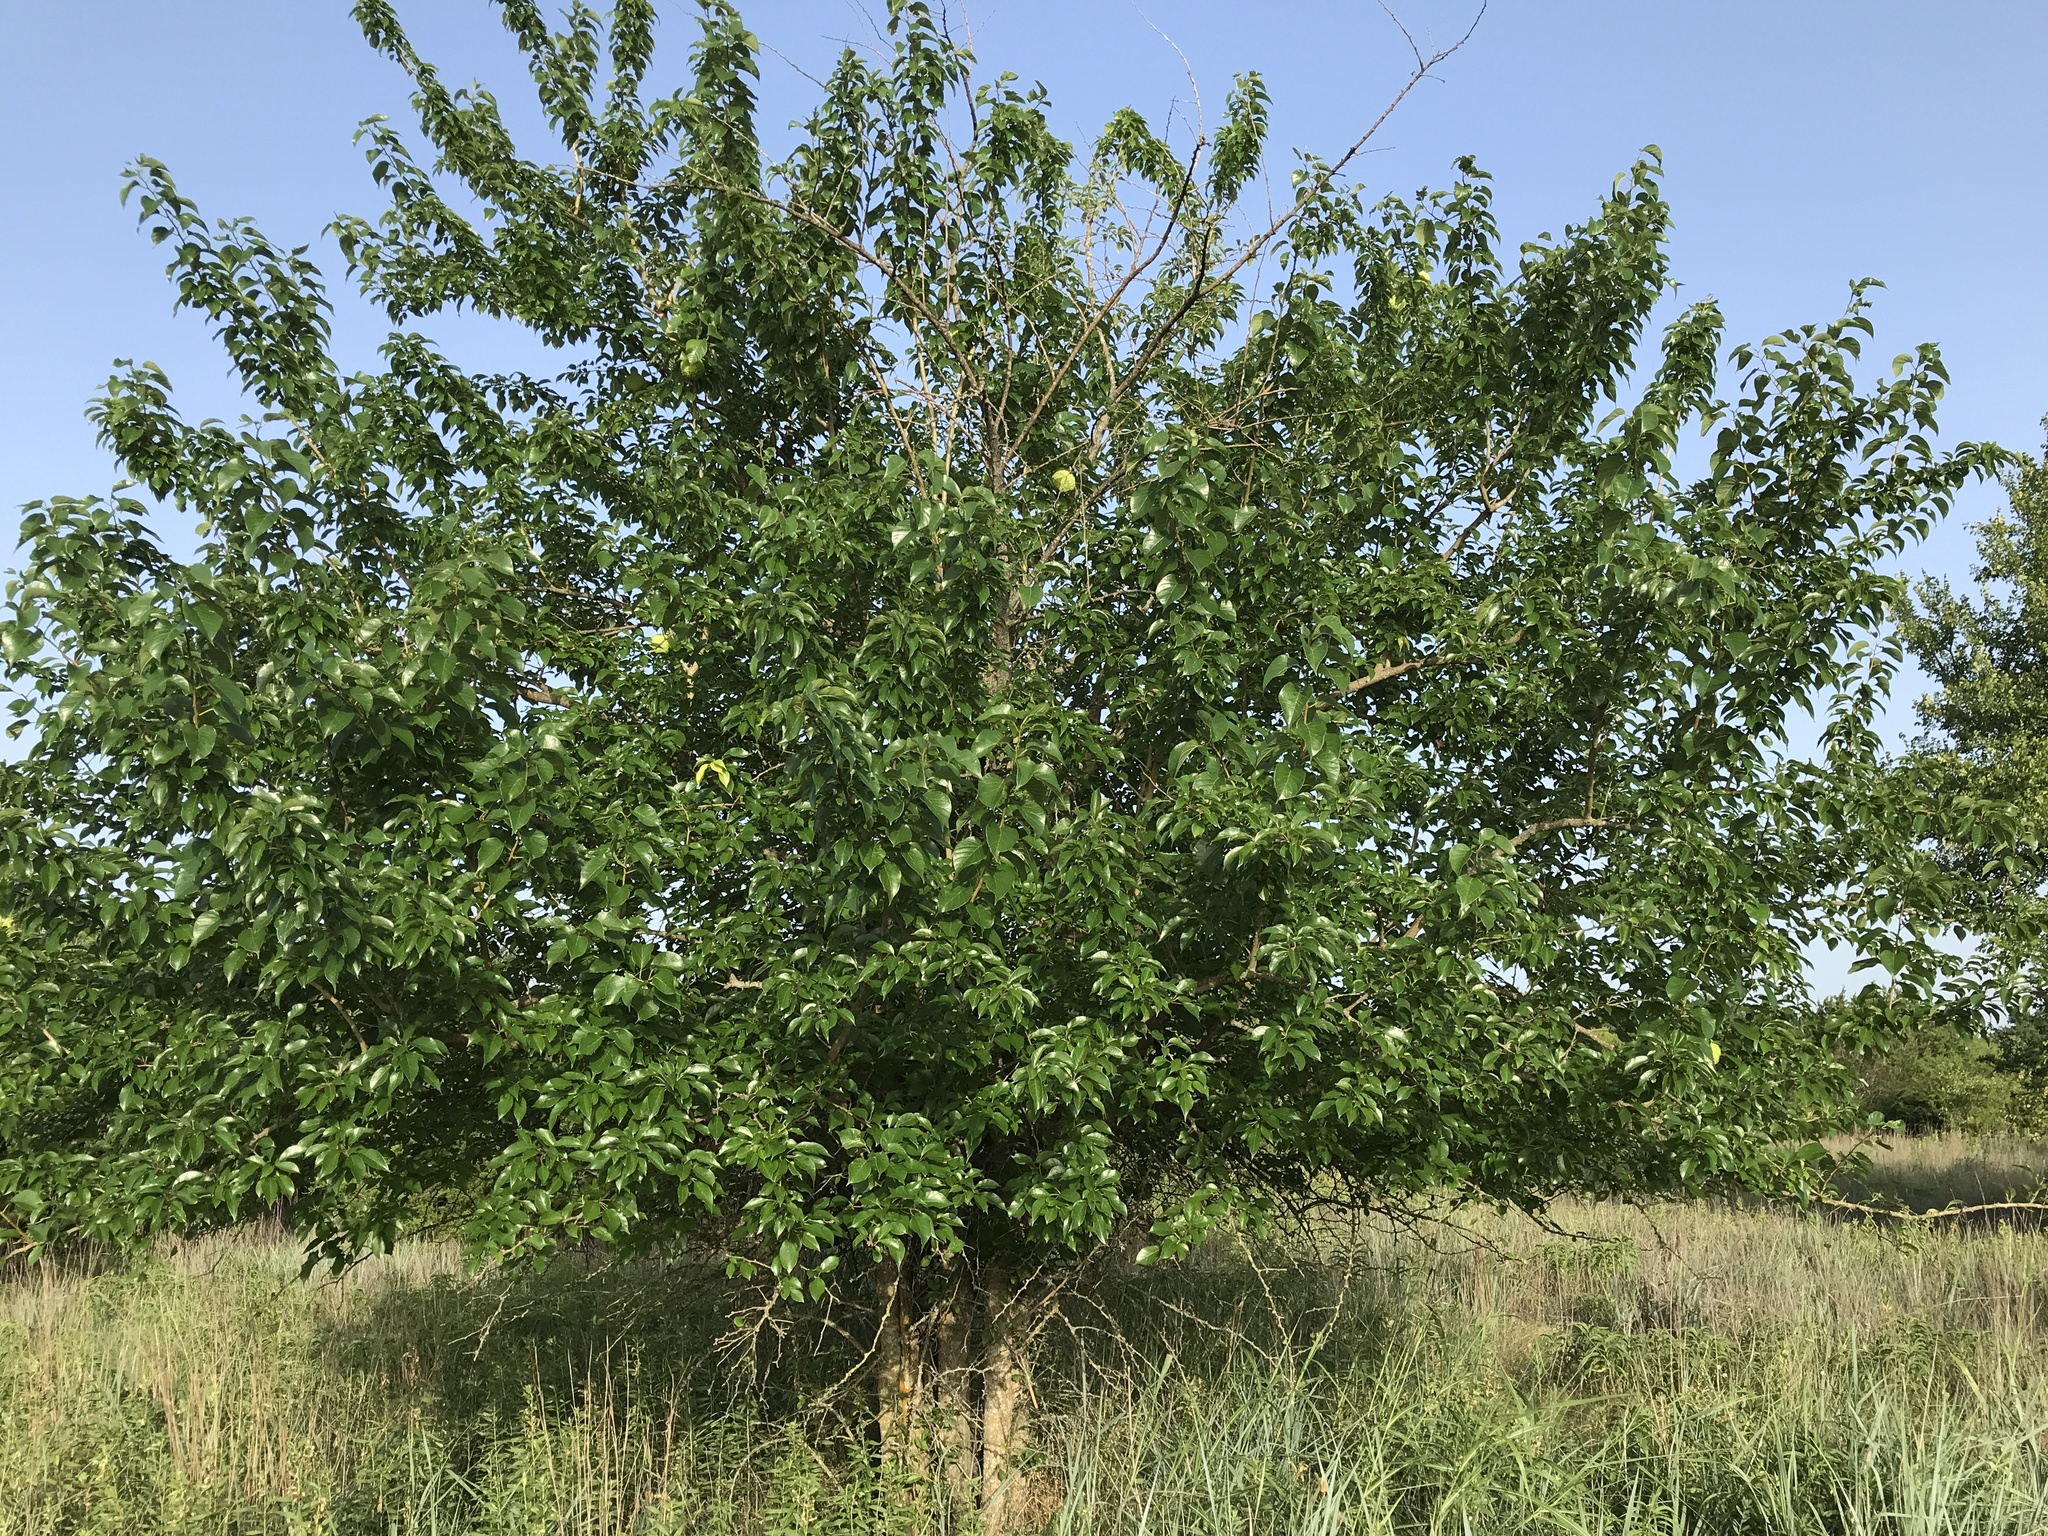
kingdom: Plantae
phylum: Tracheophyta
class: Magnoliopsida
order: Rosales
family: Moraceae
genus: Maclura
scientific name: Maclura pomifera
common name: Osage-orange
